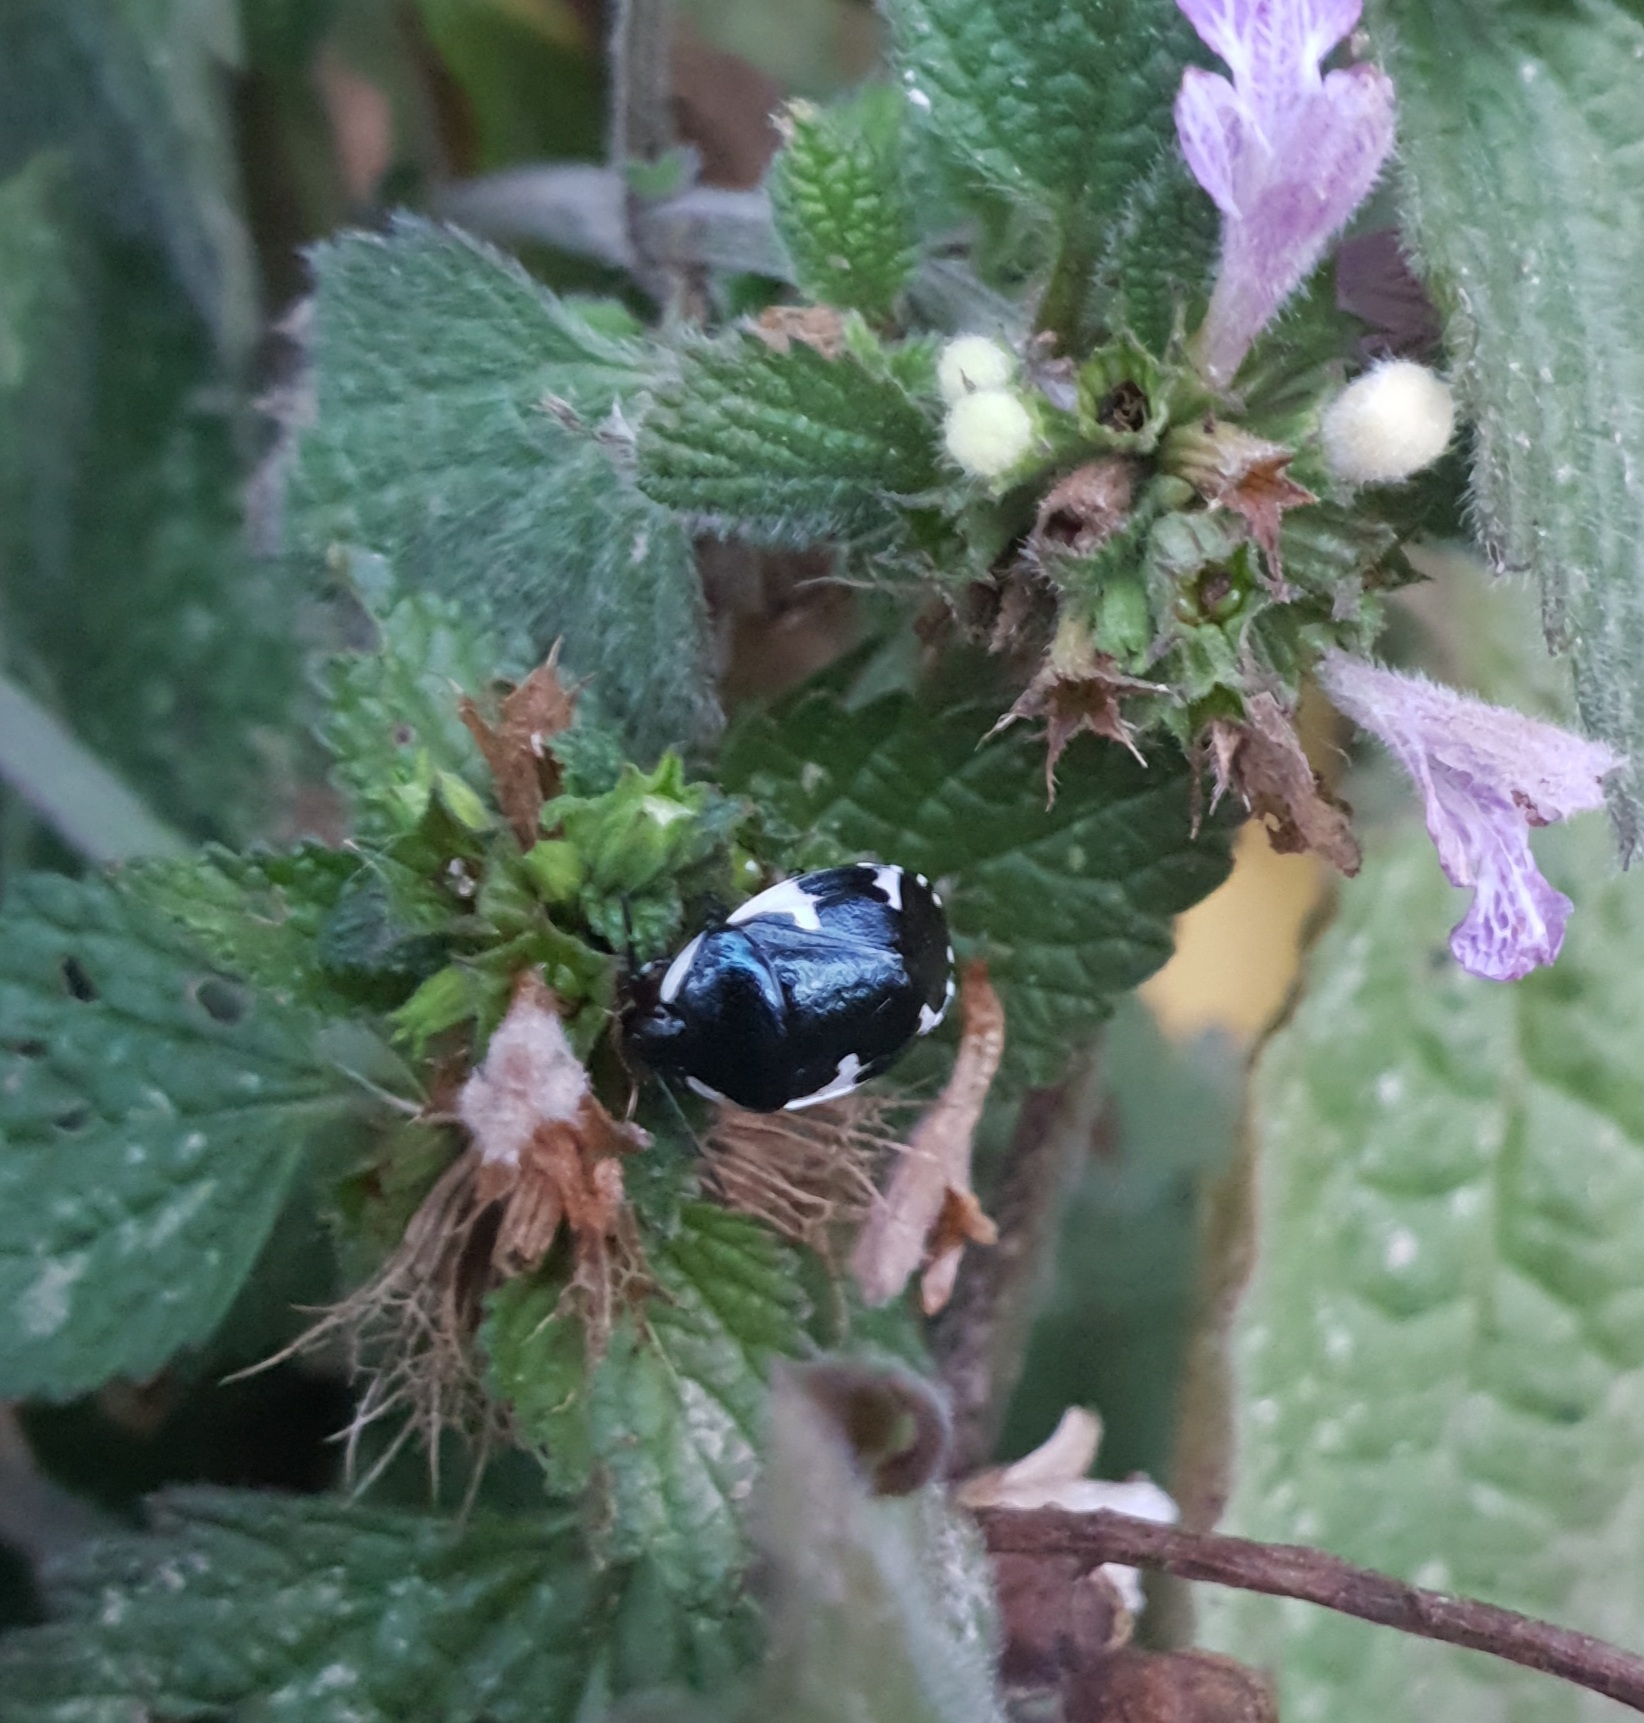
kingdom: Animalia
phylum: Arthropoda
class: Insecta
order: Hemiptera
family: Cydnidae
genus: Tritomegas
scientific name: Tritomegas sexmaculatus
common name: Rambur's pied shieldbug
